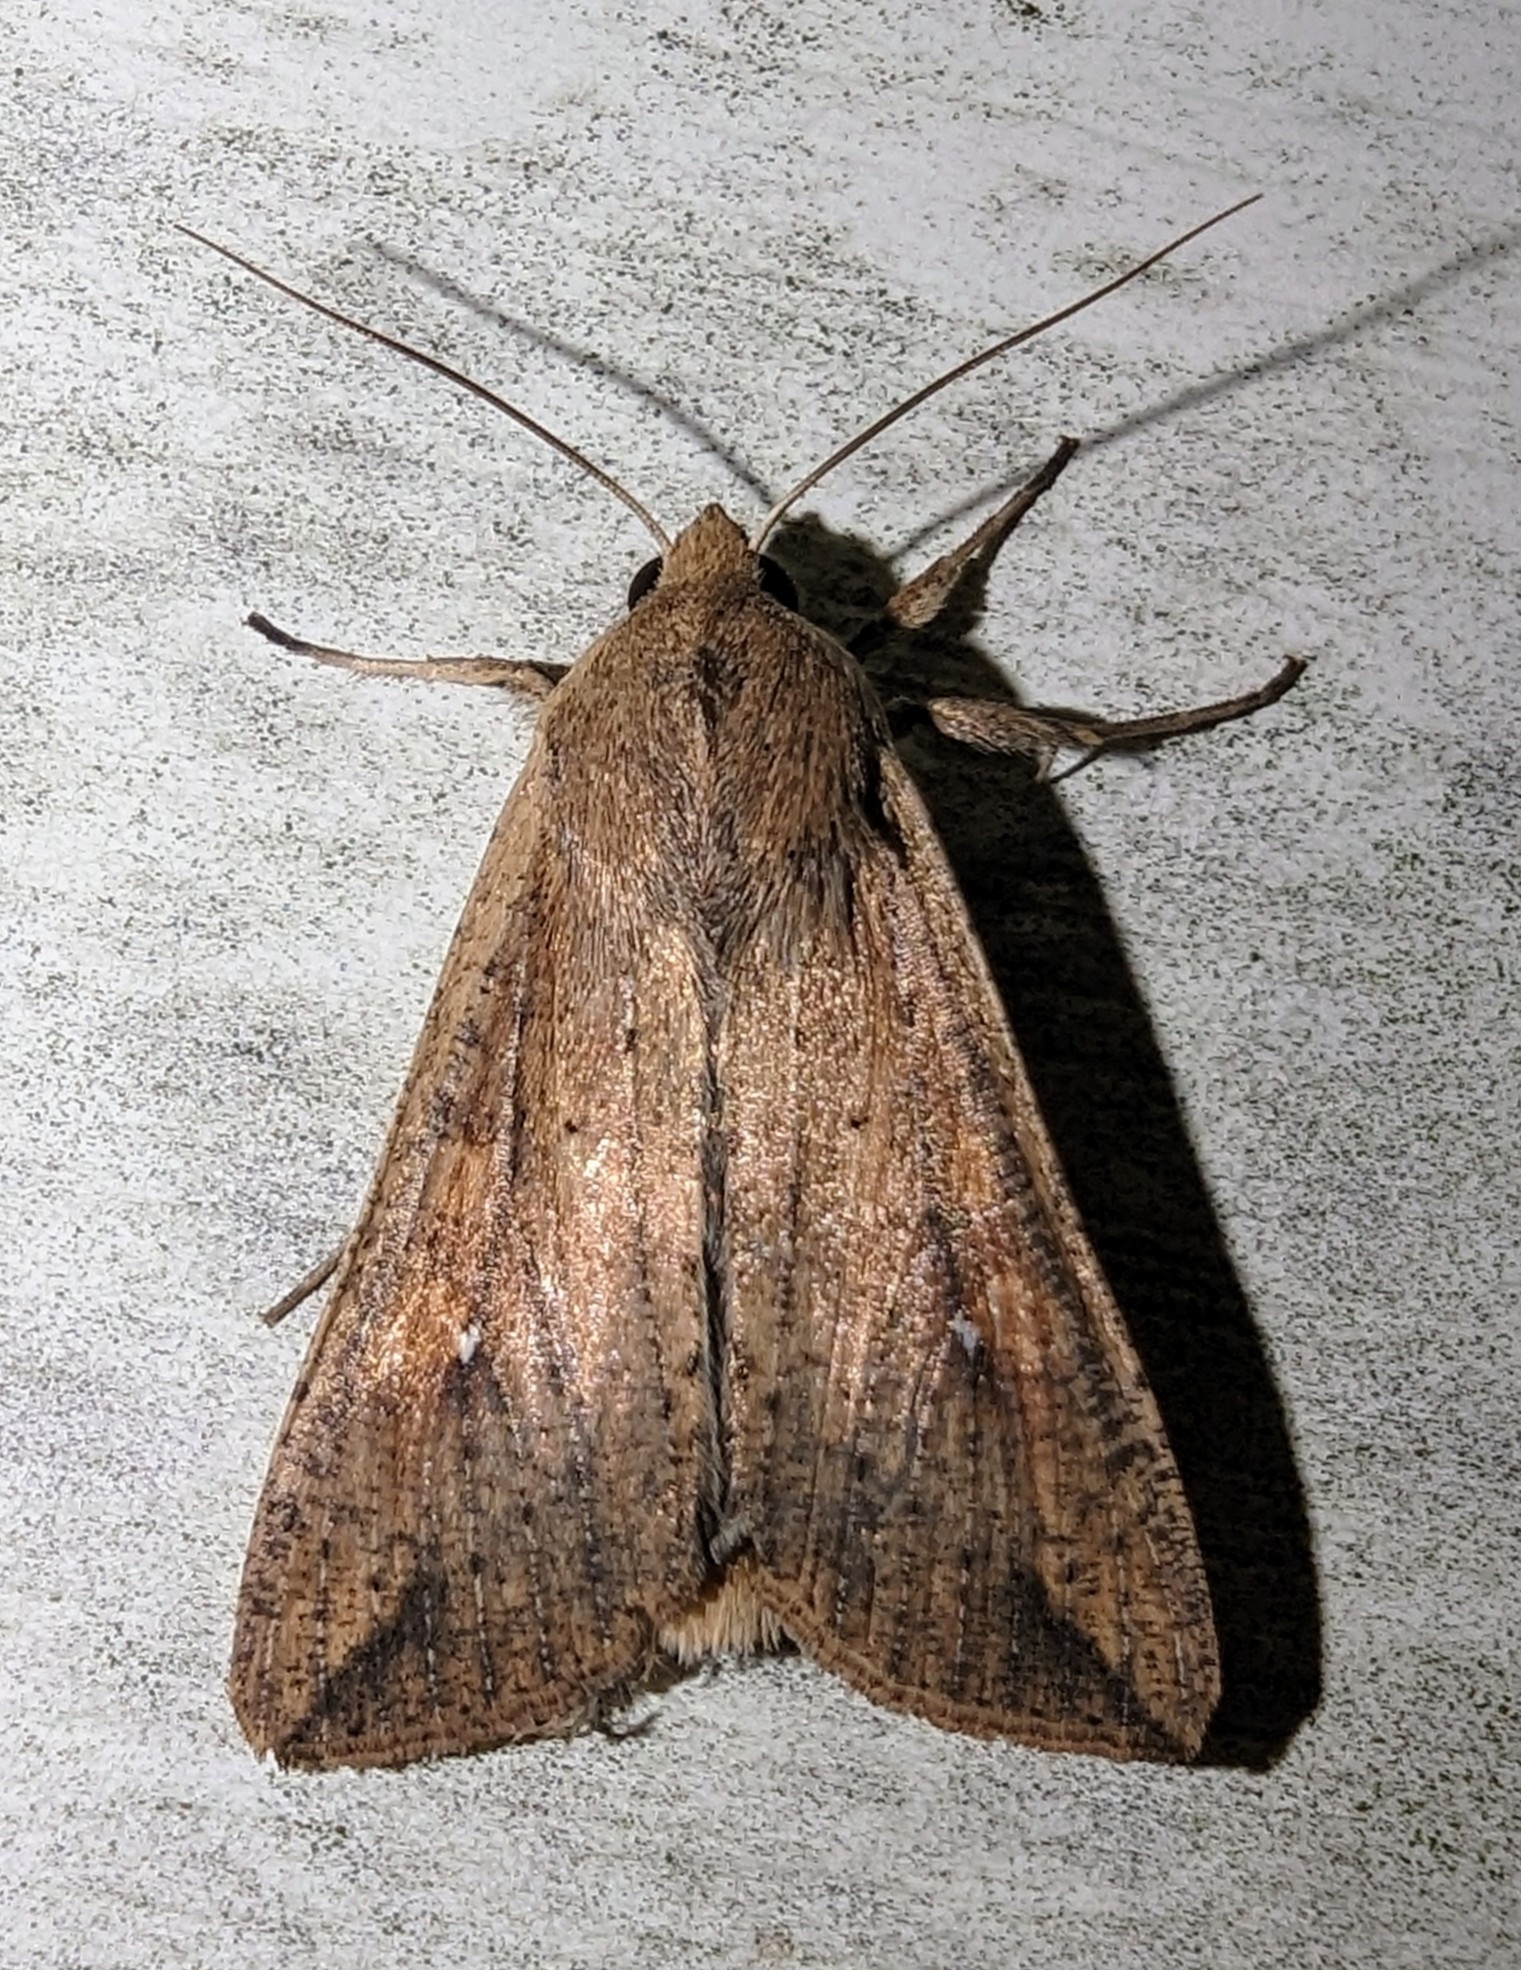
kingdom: Animalia
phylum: Arthropoda
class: Insecta
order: Lepidoptera
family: Noctuidae
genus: Mythimna
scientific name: Mythimna unipuncta
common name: White-speck
